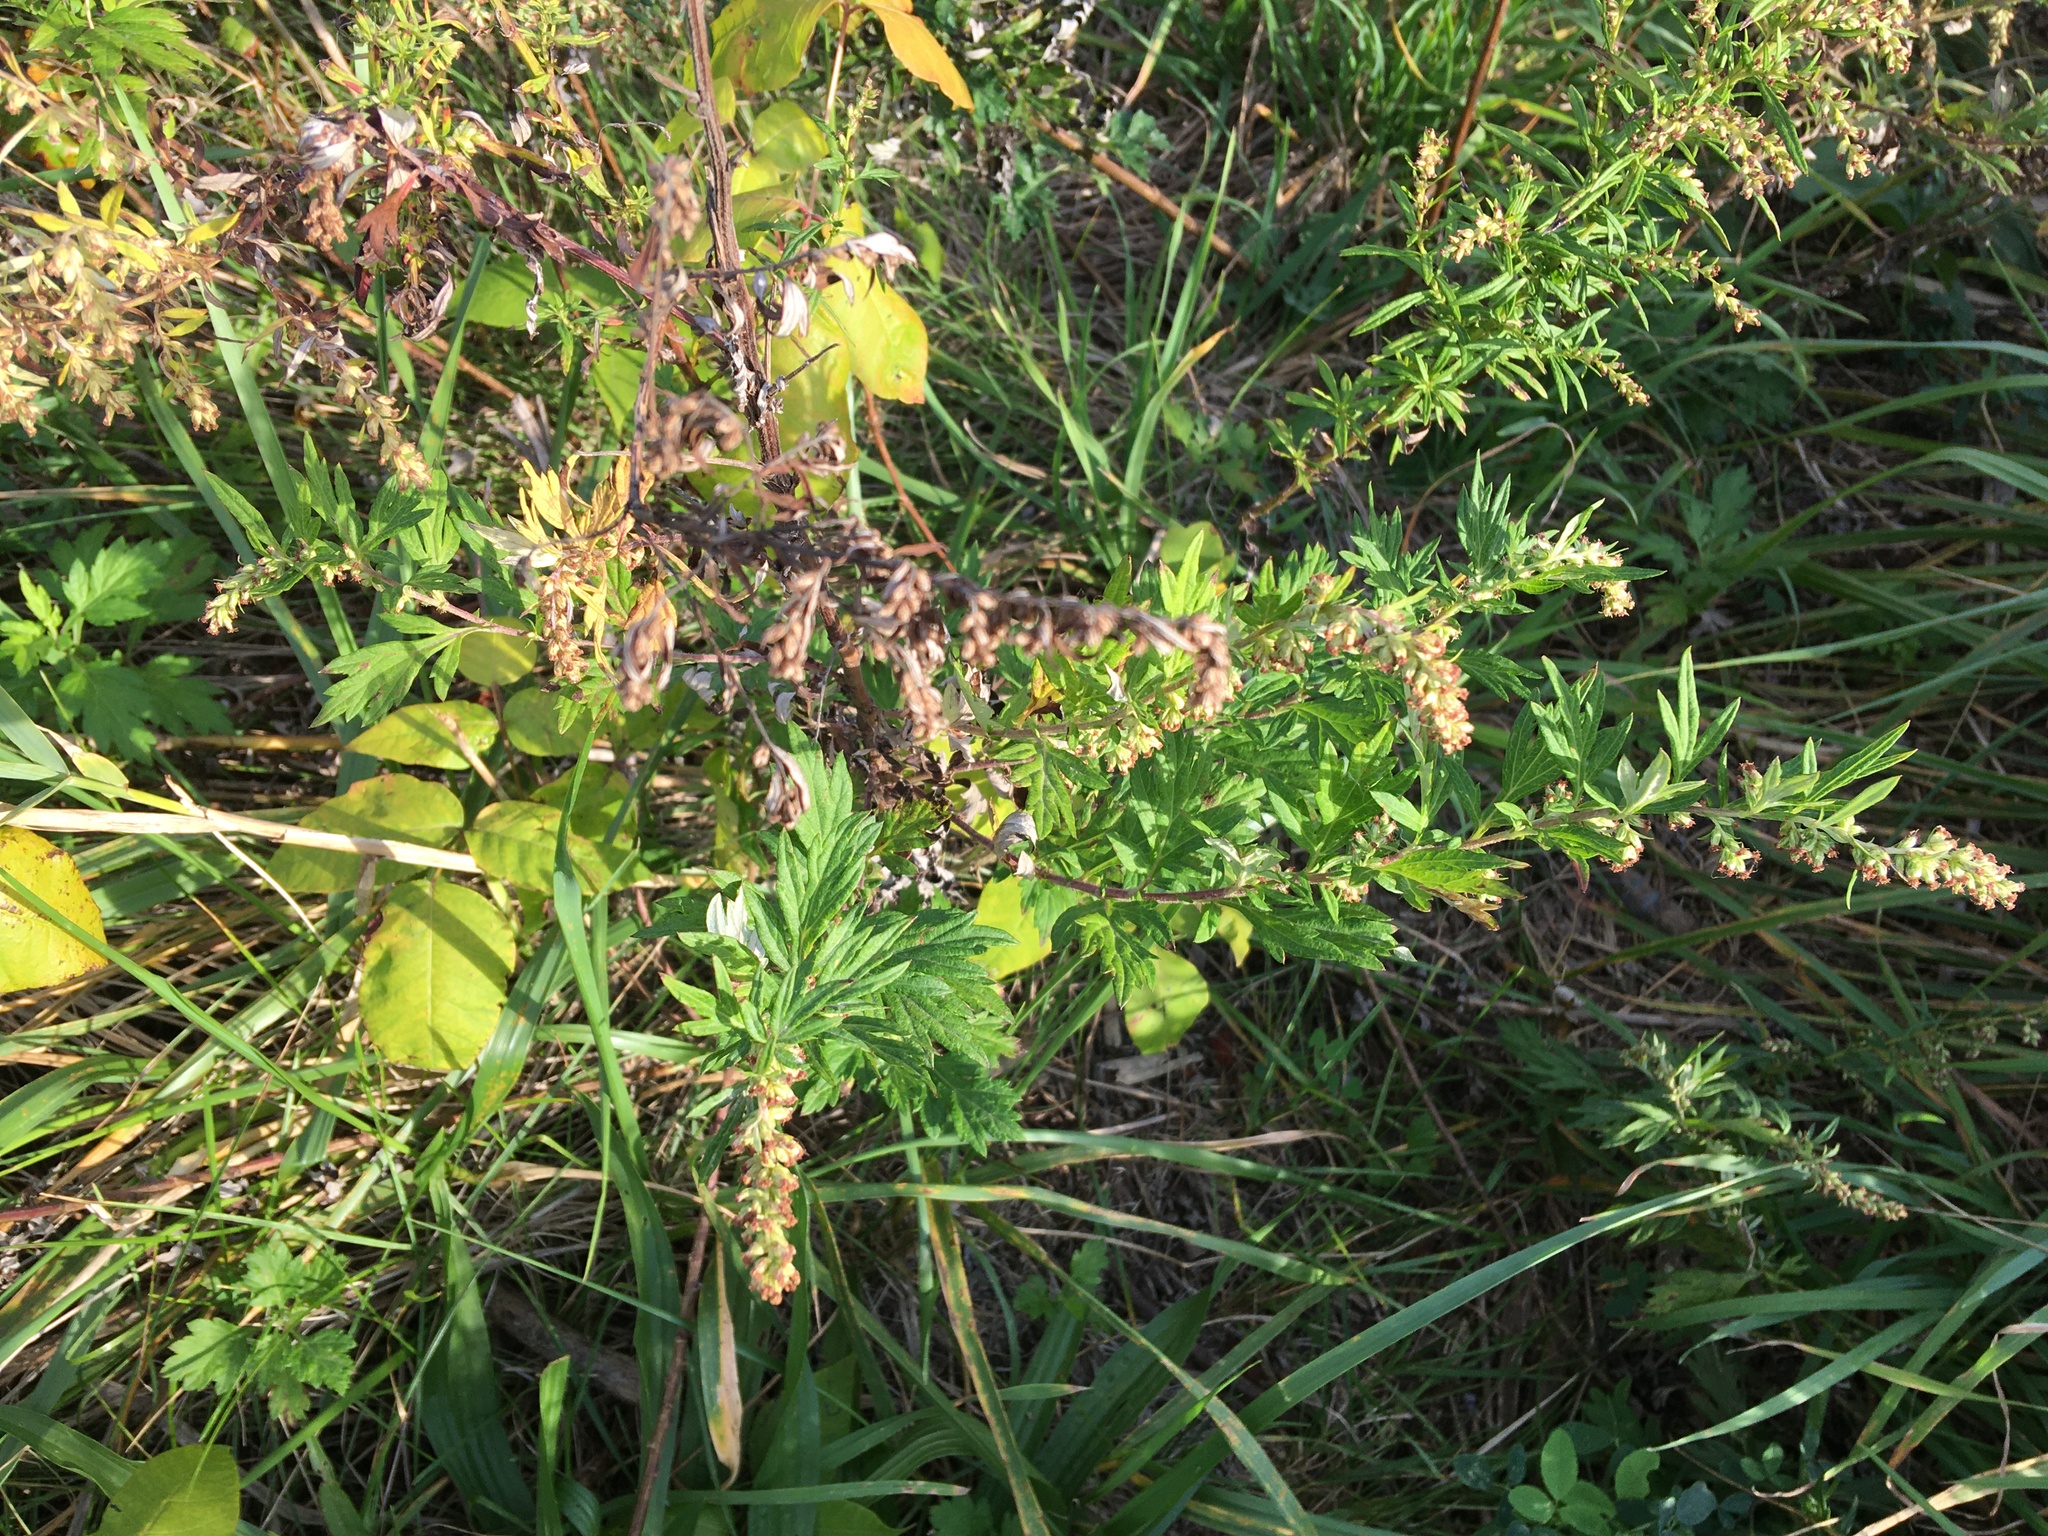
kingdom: Plantae
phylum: Tracheophyta
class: Magnoliopsida
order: Asterales
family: Asteraceae
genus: Artemisia
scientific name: Artemisia vulgaris
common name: Mugwort
